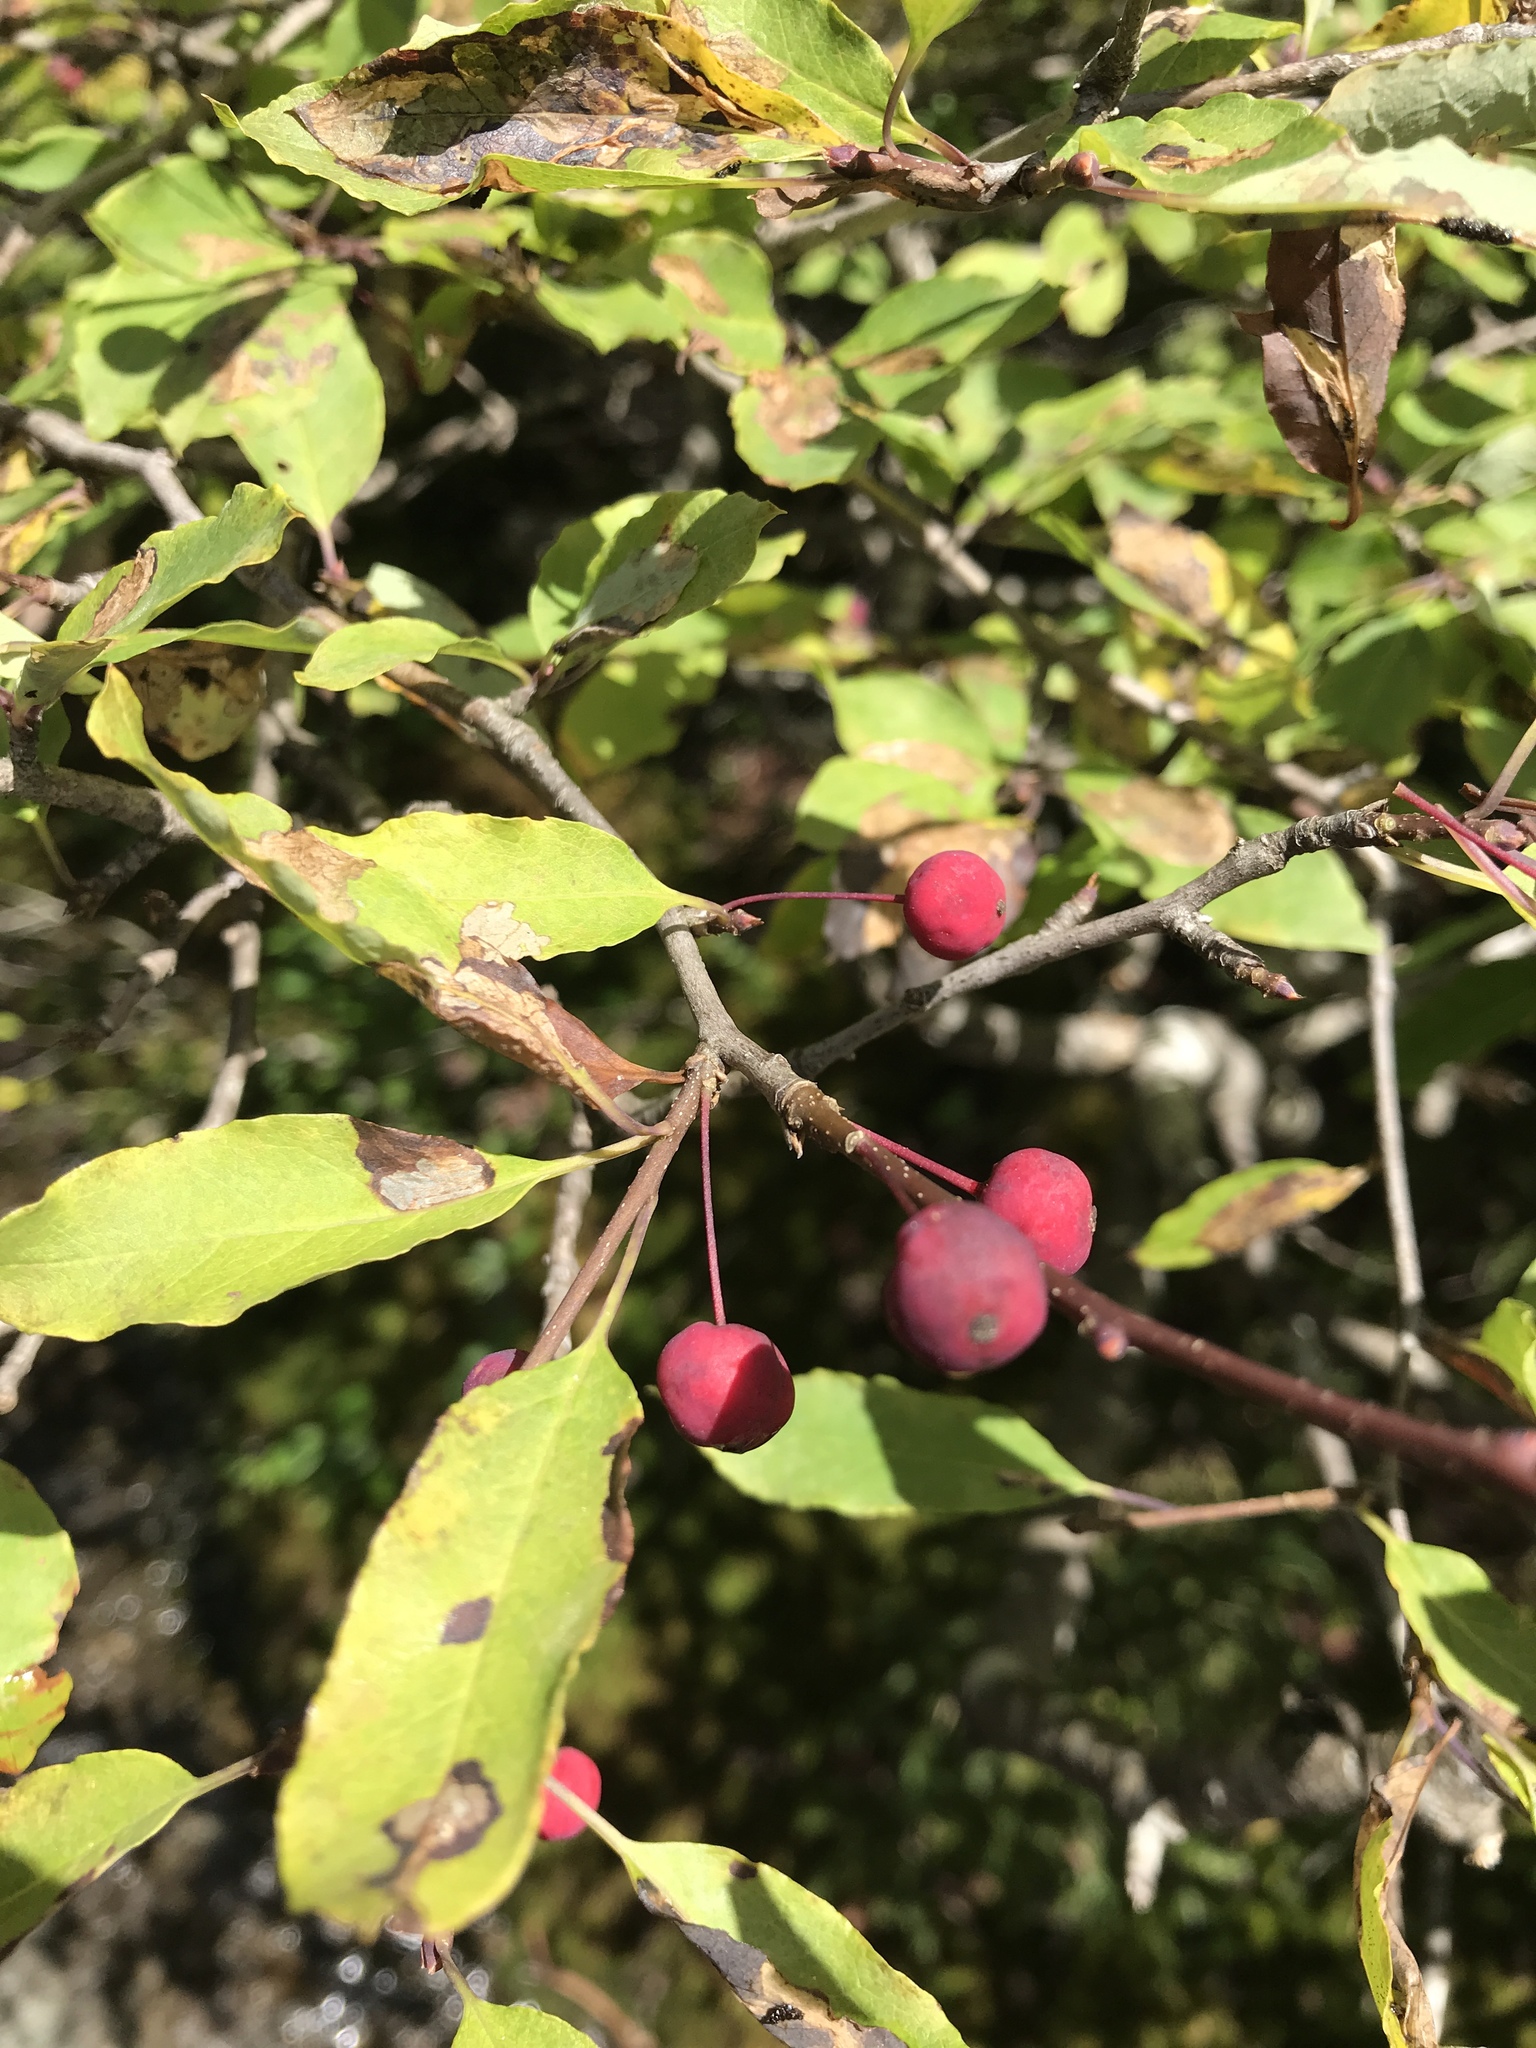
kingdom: Plantae
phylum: Tracheophyta
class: Magnoliopsida
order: Aquifoliales
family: Aquifoliaceae
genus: Ilex
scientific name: Ilex mucronata
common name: Catberry
